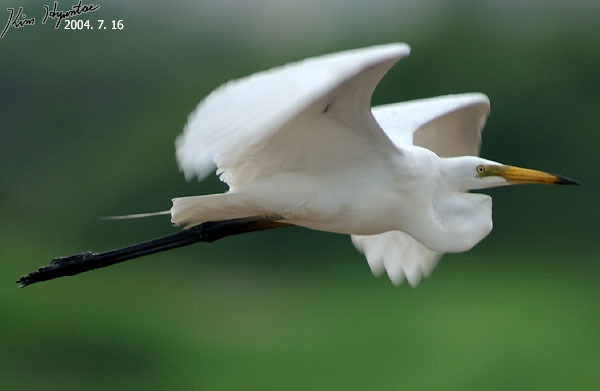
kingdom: Animalia
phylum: Chordata
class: Aves
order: Pelecaniformes
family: Ardeidae
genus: Ardea
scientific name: Ardea alba
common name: Great egret
